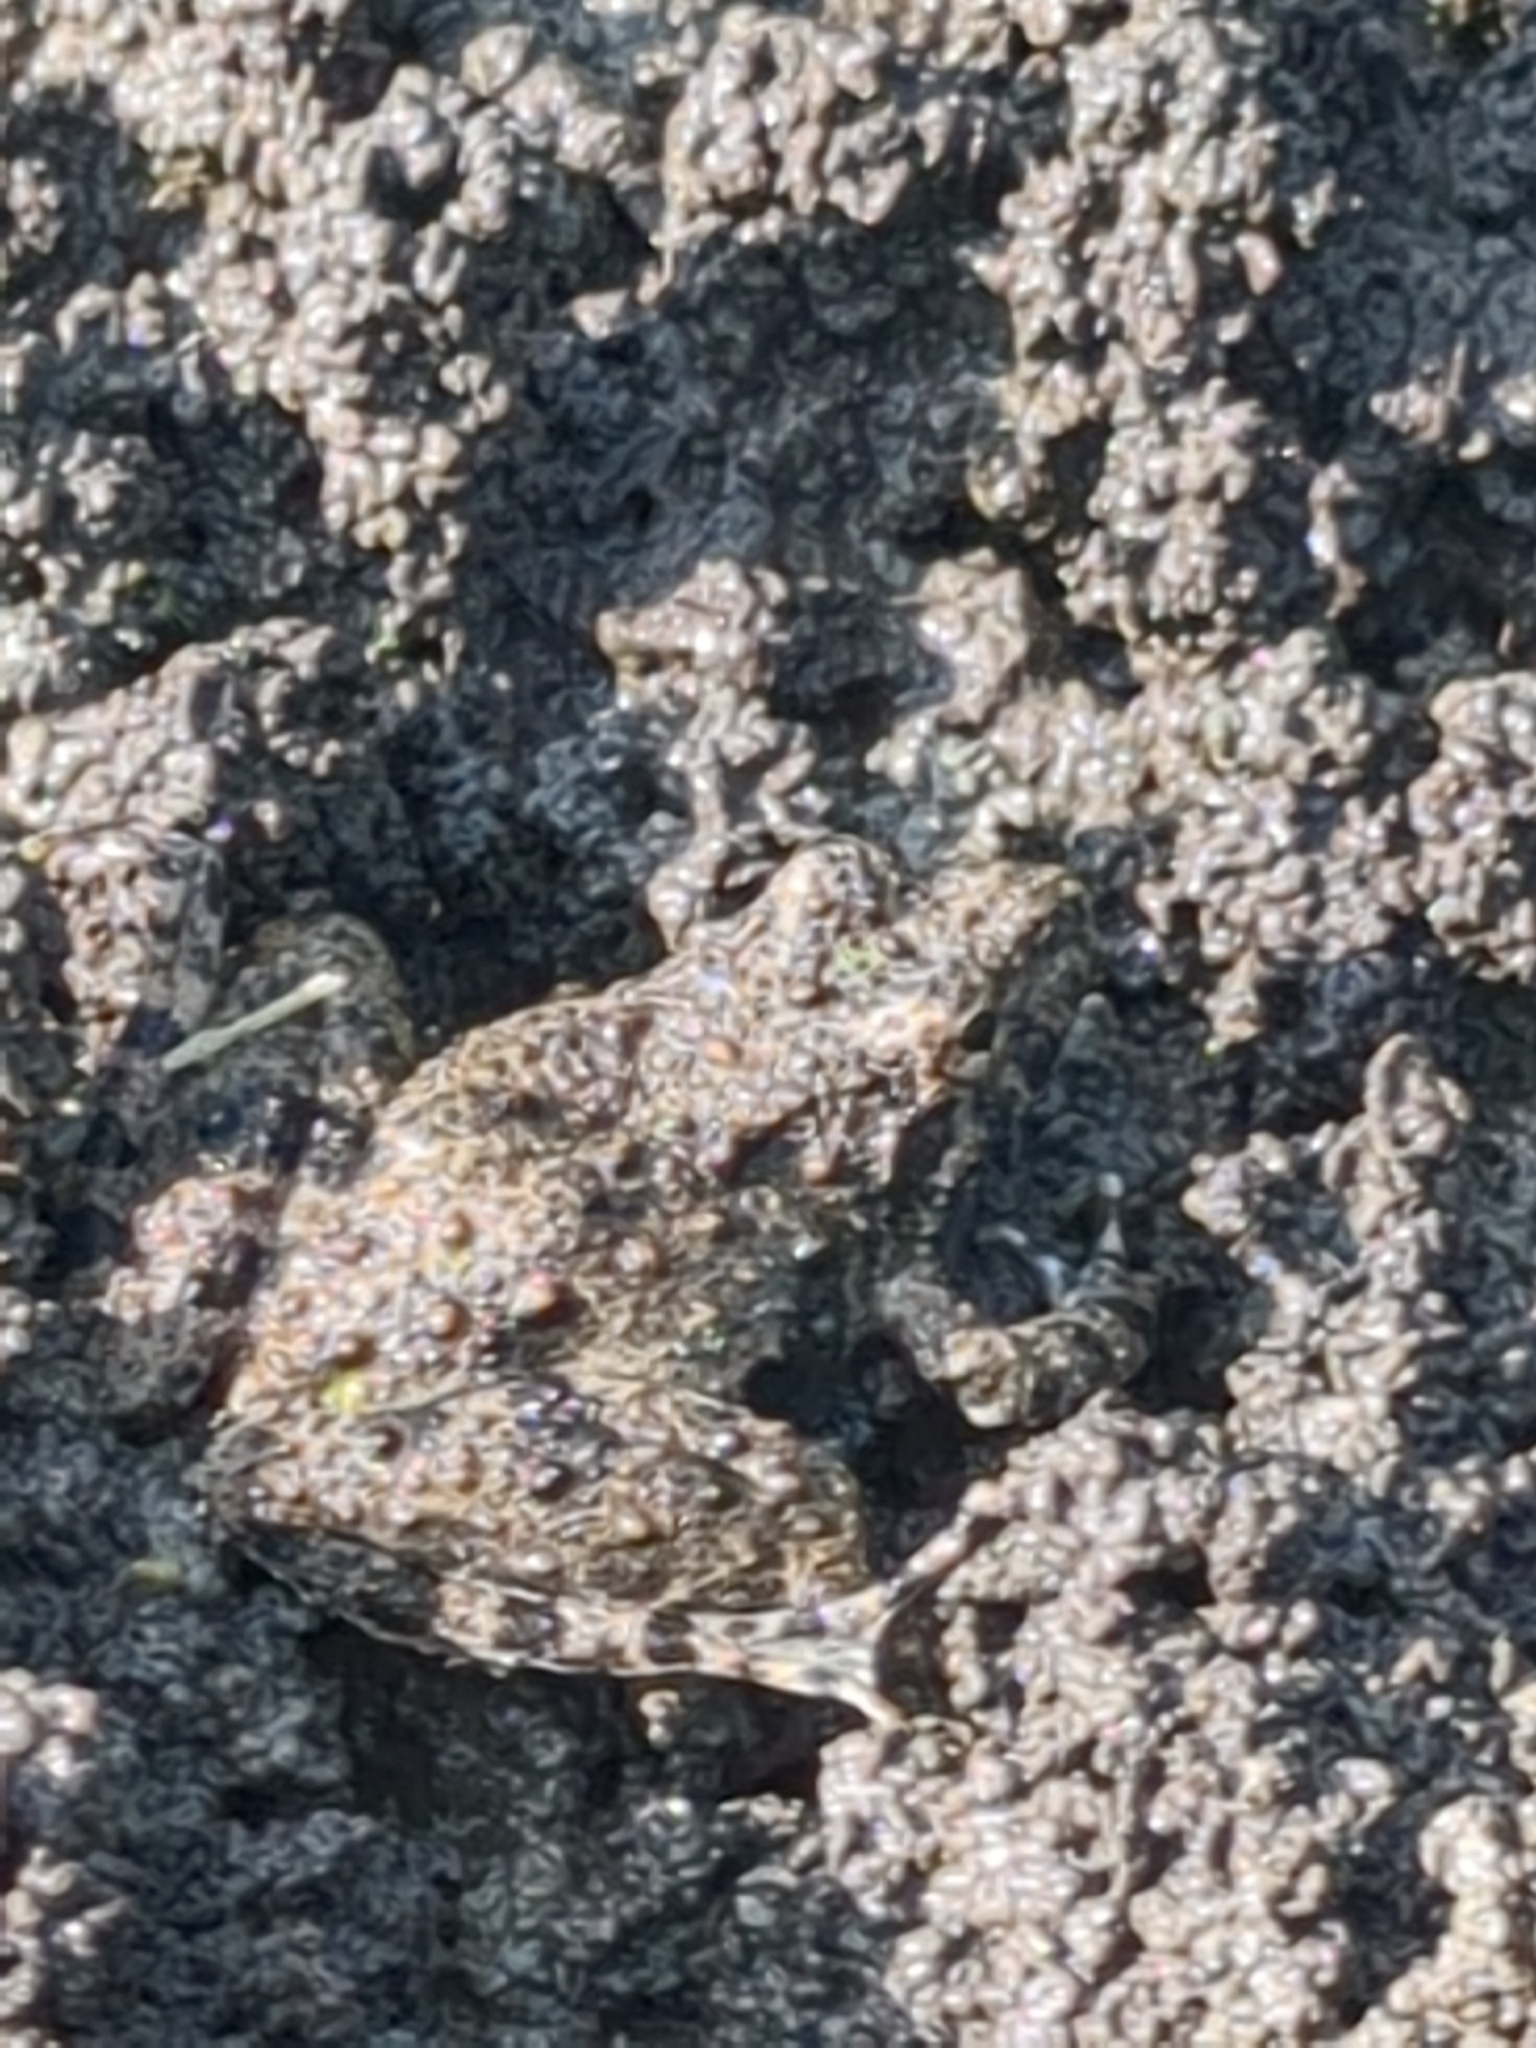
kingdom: Animalia
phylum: Chordata
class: Amphibia
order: Anura
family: Hylidae
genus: Acris
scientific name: Acris blanchardi
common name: Blanchard's cricket frog
